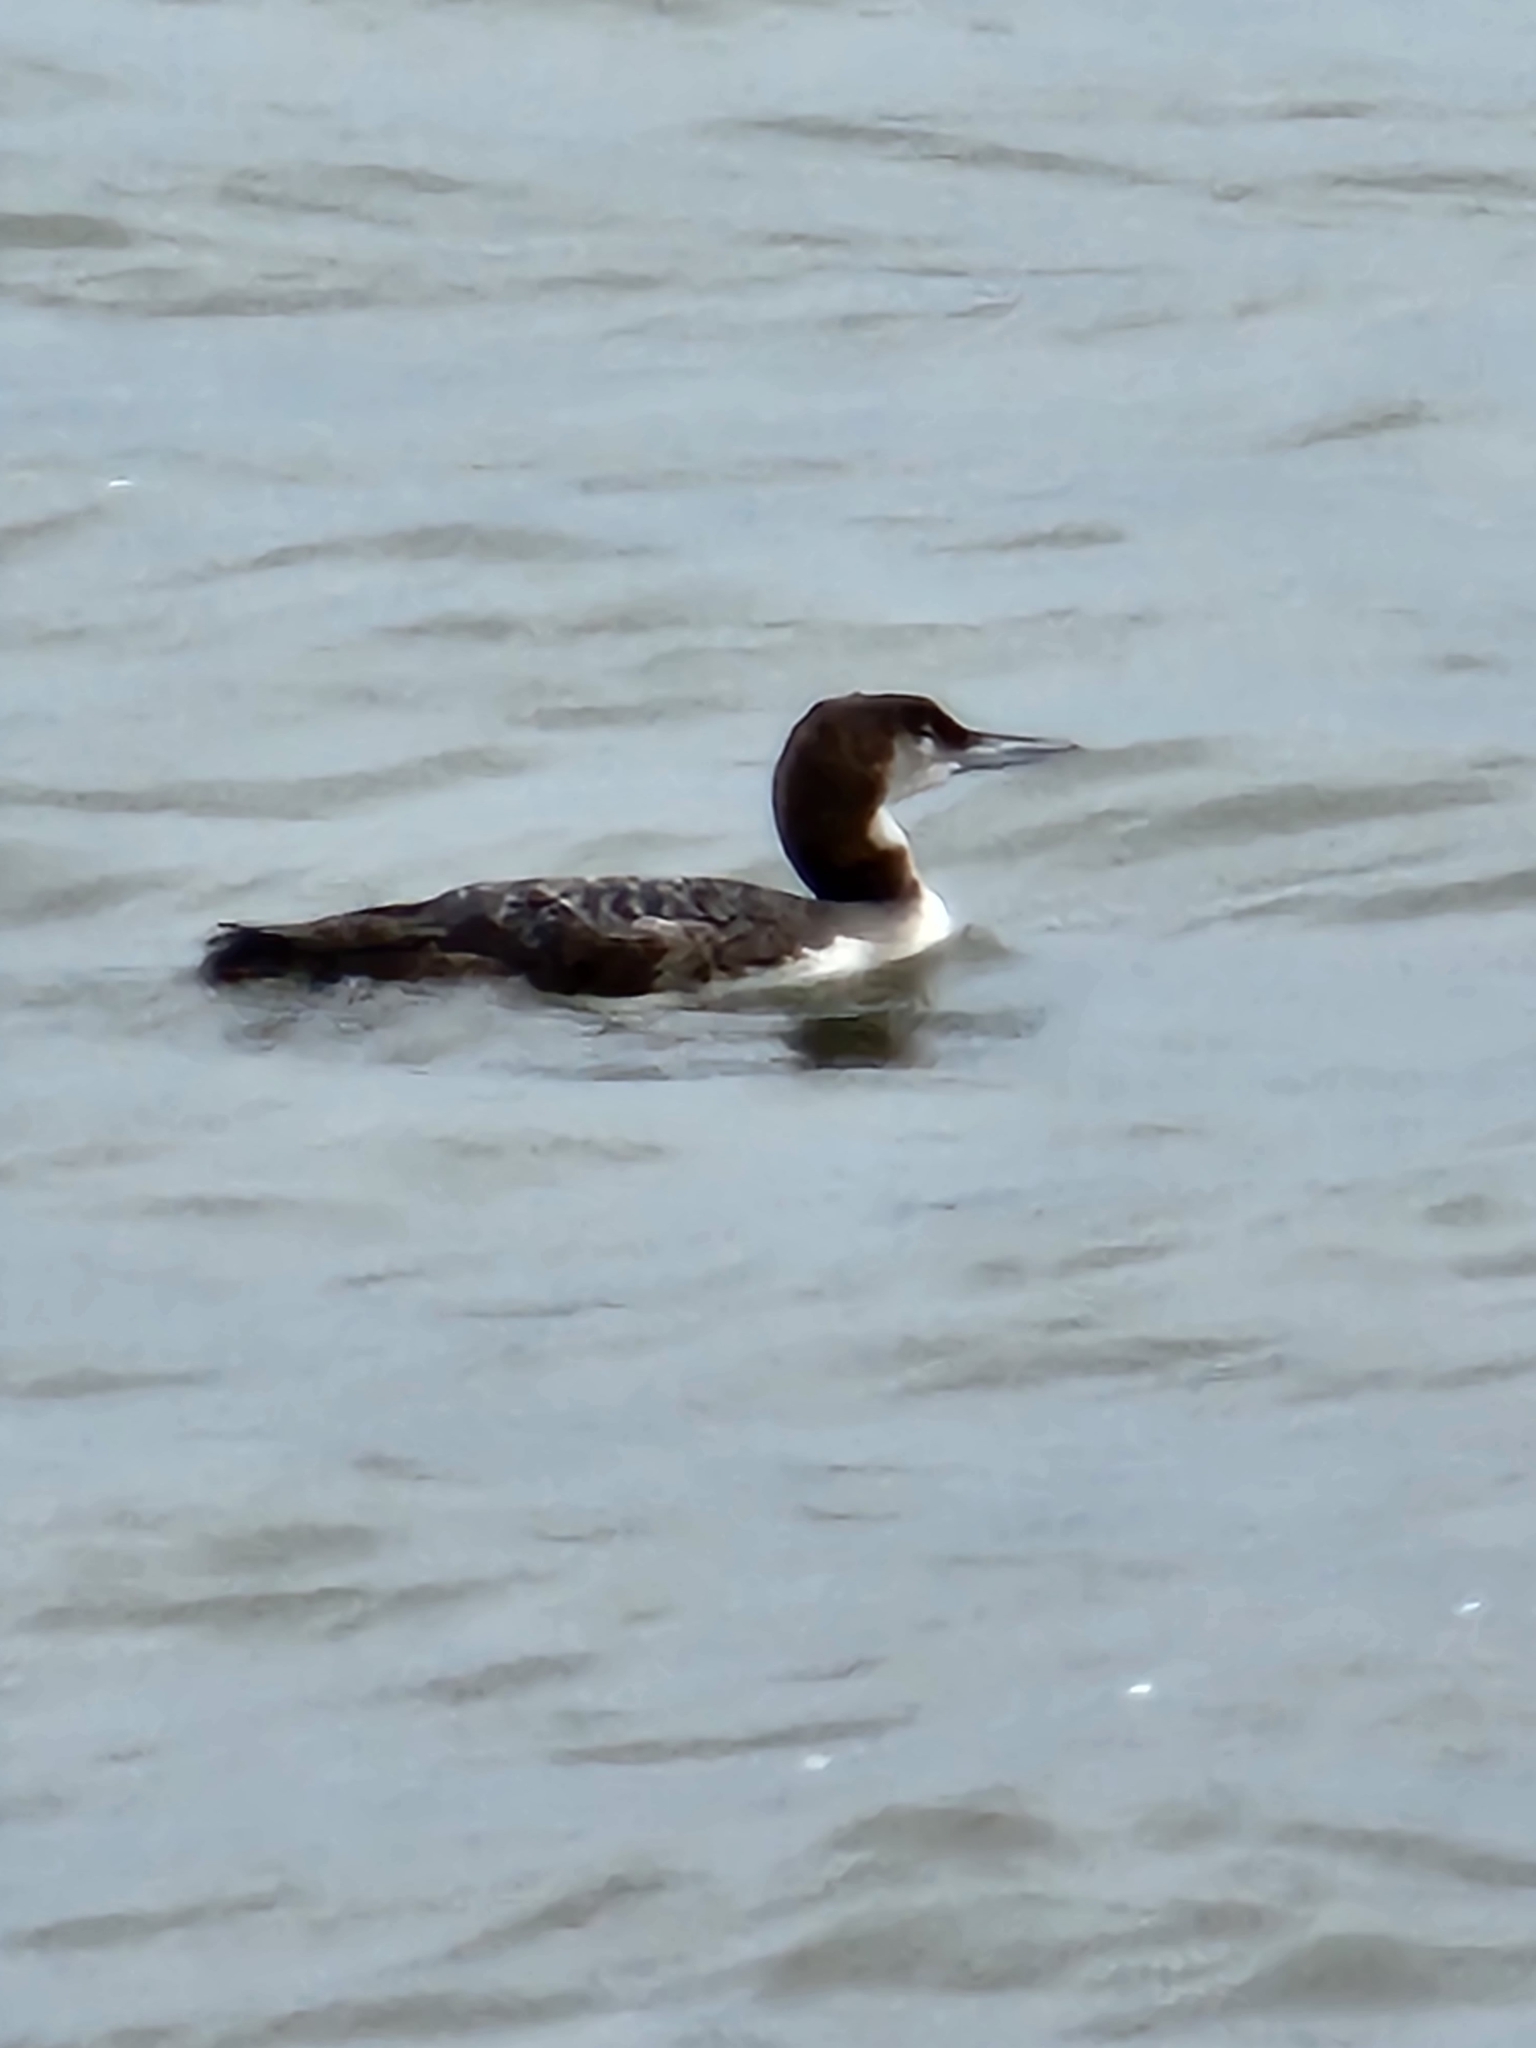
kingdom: Animalia
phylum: Chordata
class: Aves
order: Gaviiformes
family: Gaviidae
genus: Gavia
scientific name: Gavia immer
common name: Common loon
